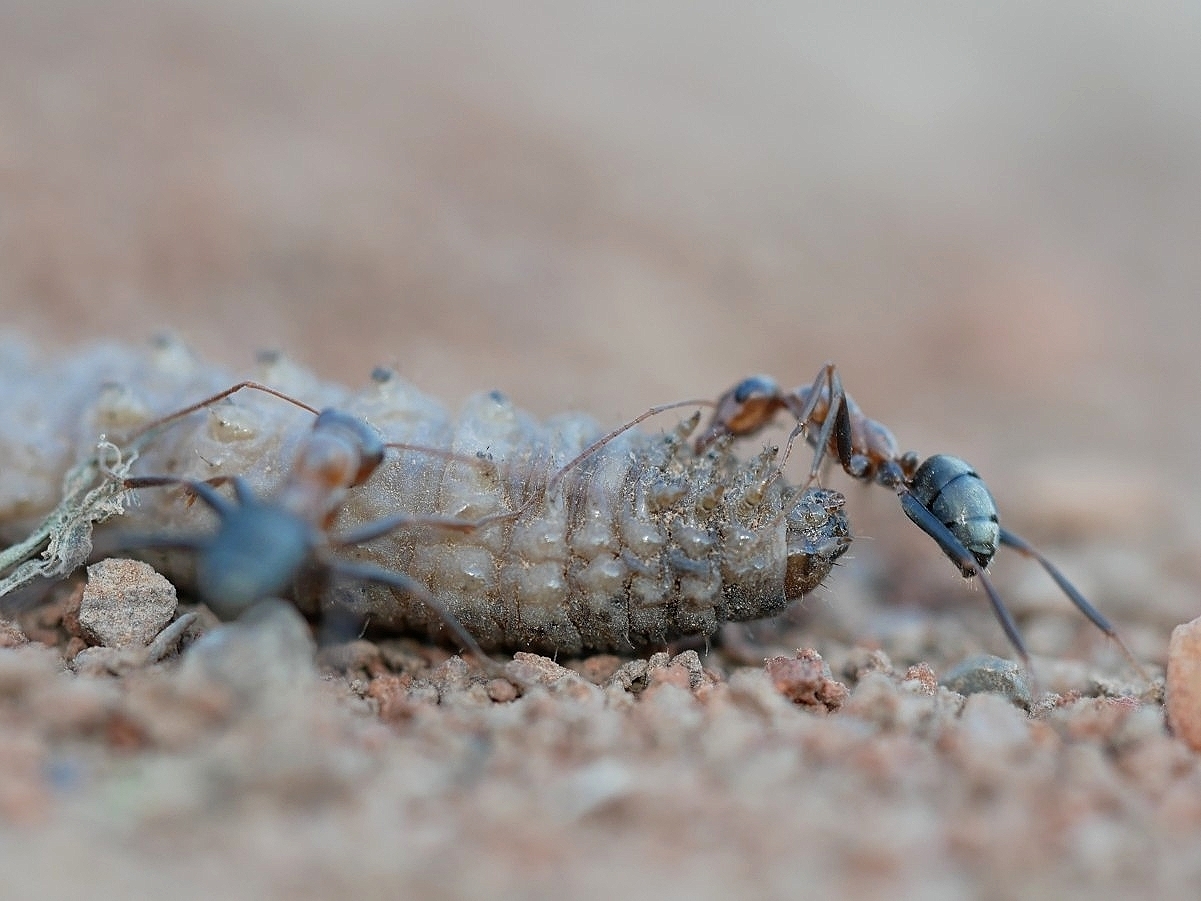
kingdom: Animalia
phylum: Arthropoda
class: Insecta
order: Hymenoptera
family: Formicidae
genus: Formica
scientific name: Formica xerophila
